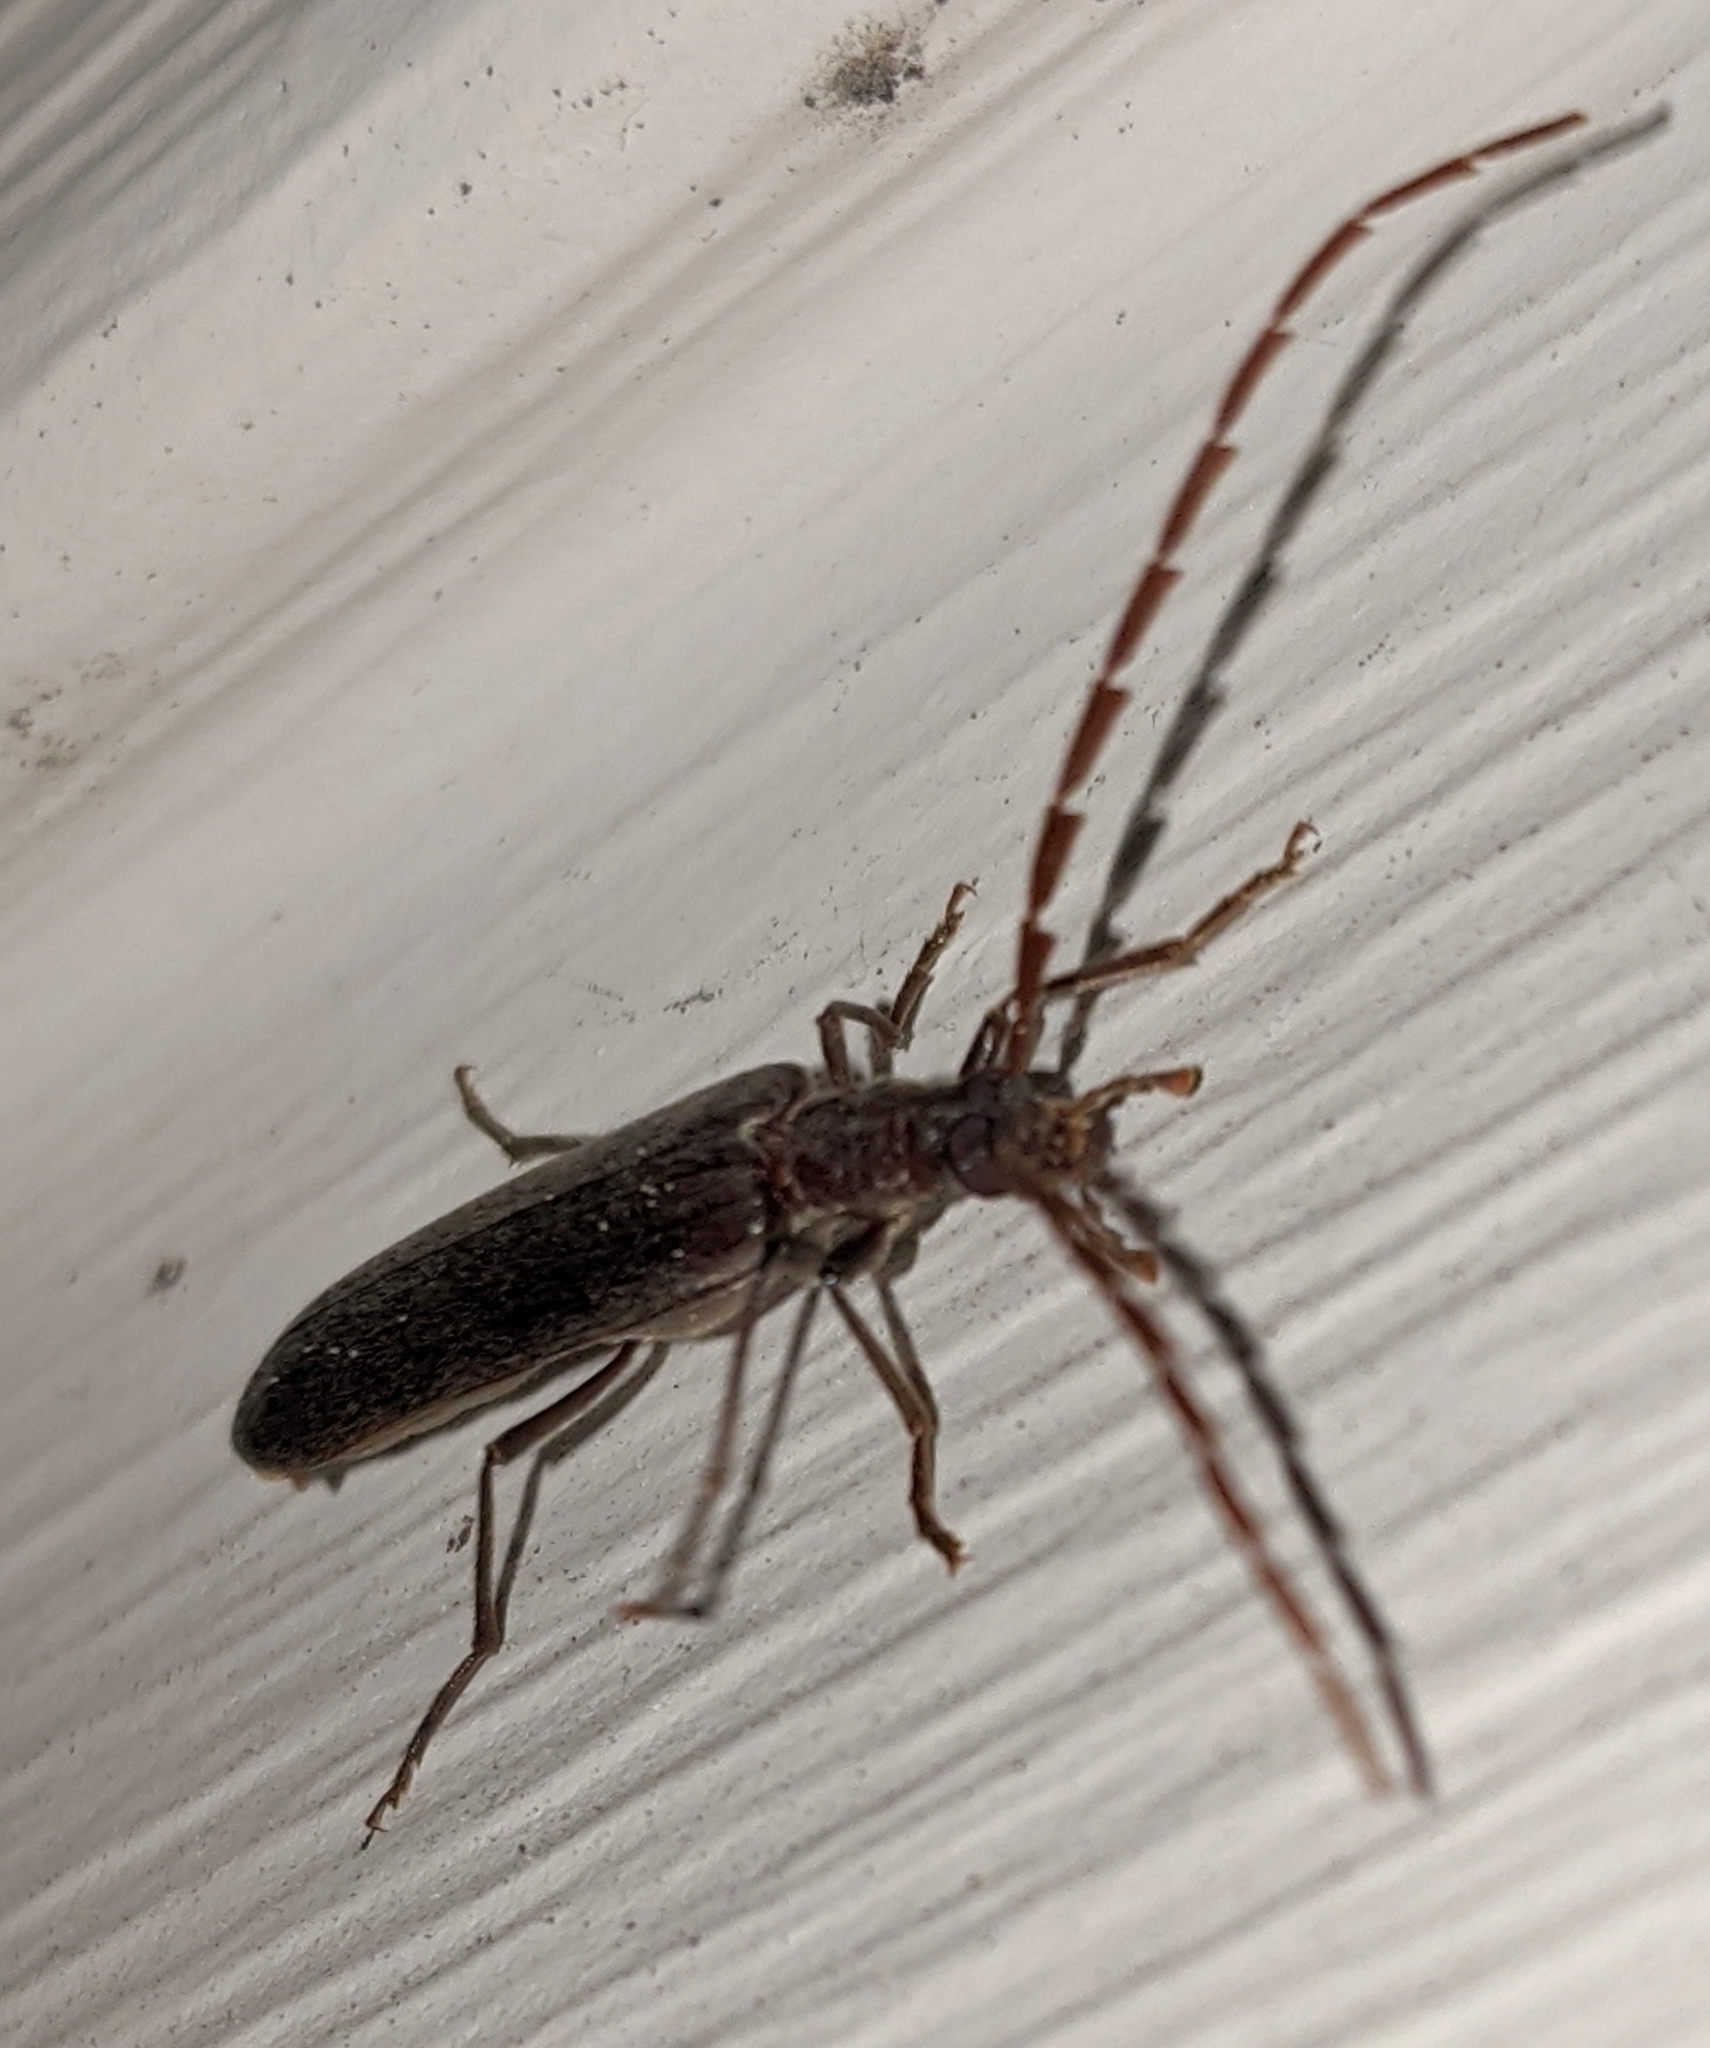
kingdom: Animalia
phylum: Arthropoda
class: Insecta
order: Coleoptera
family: Oedemeridae
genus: Calopus
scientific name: Calopus angustus
